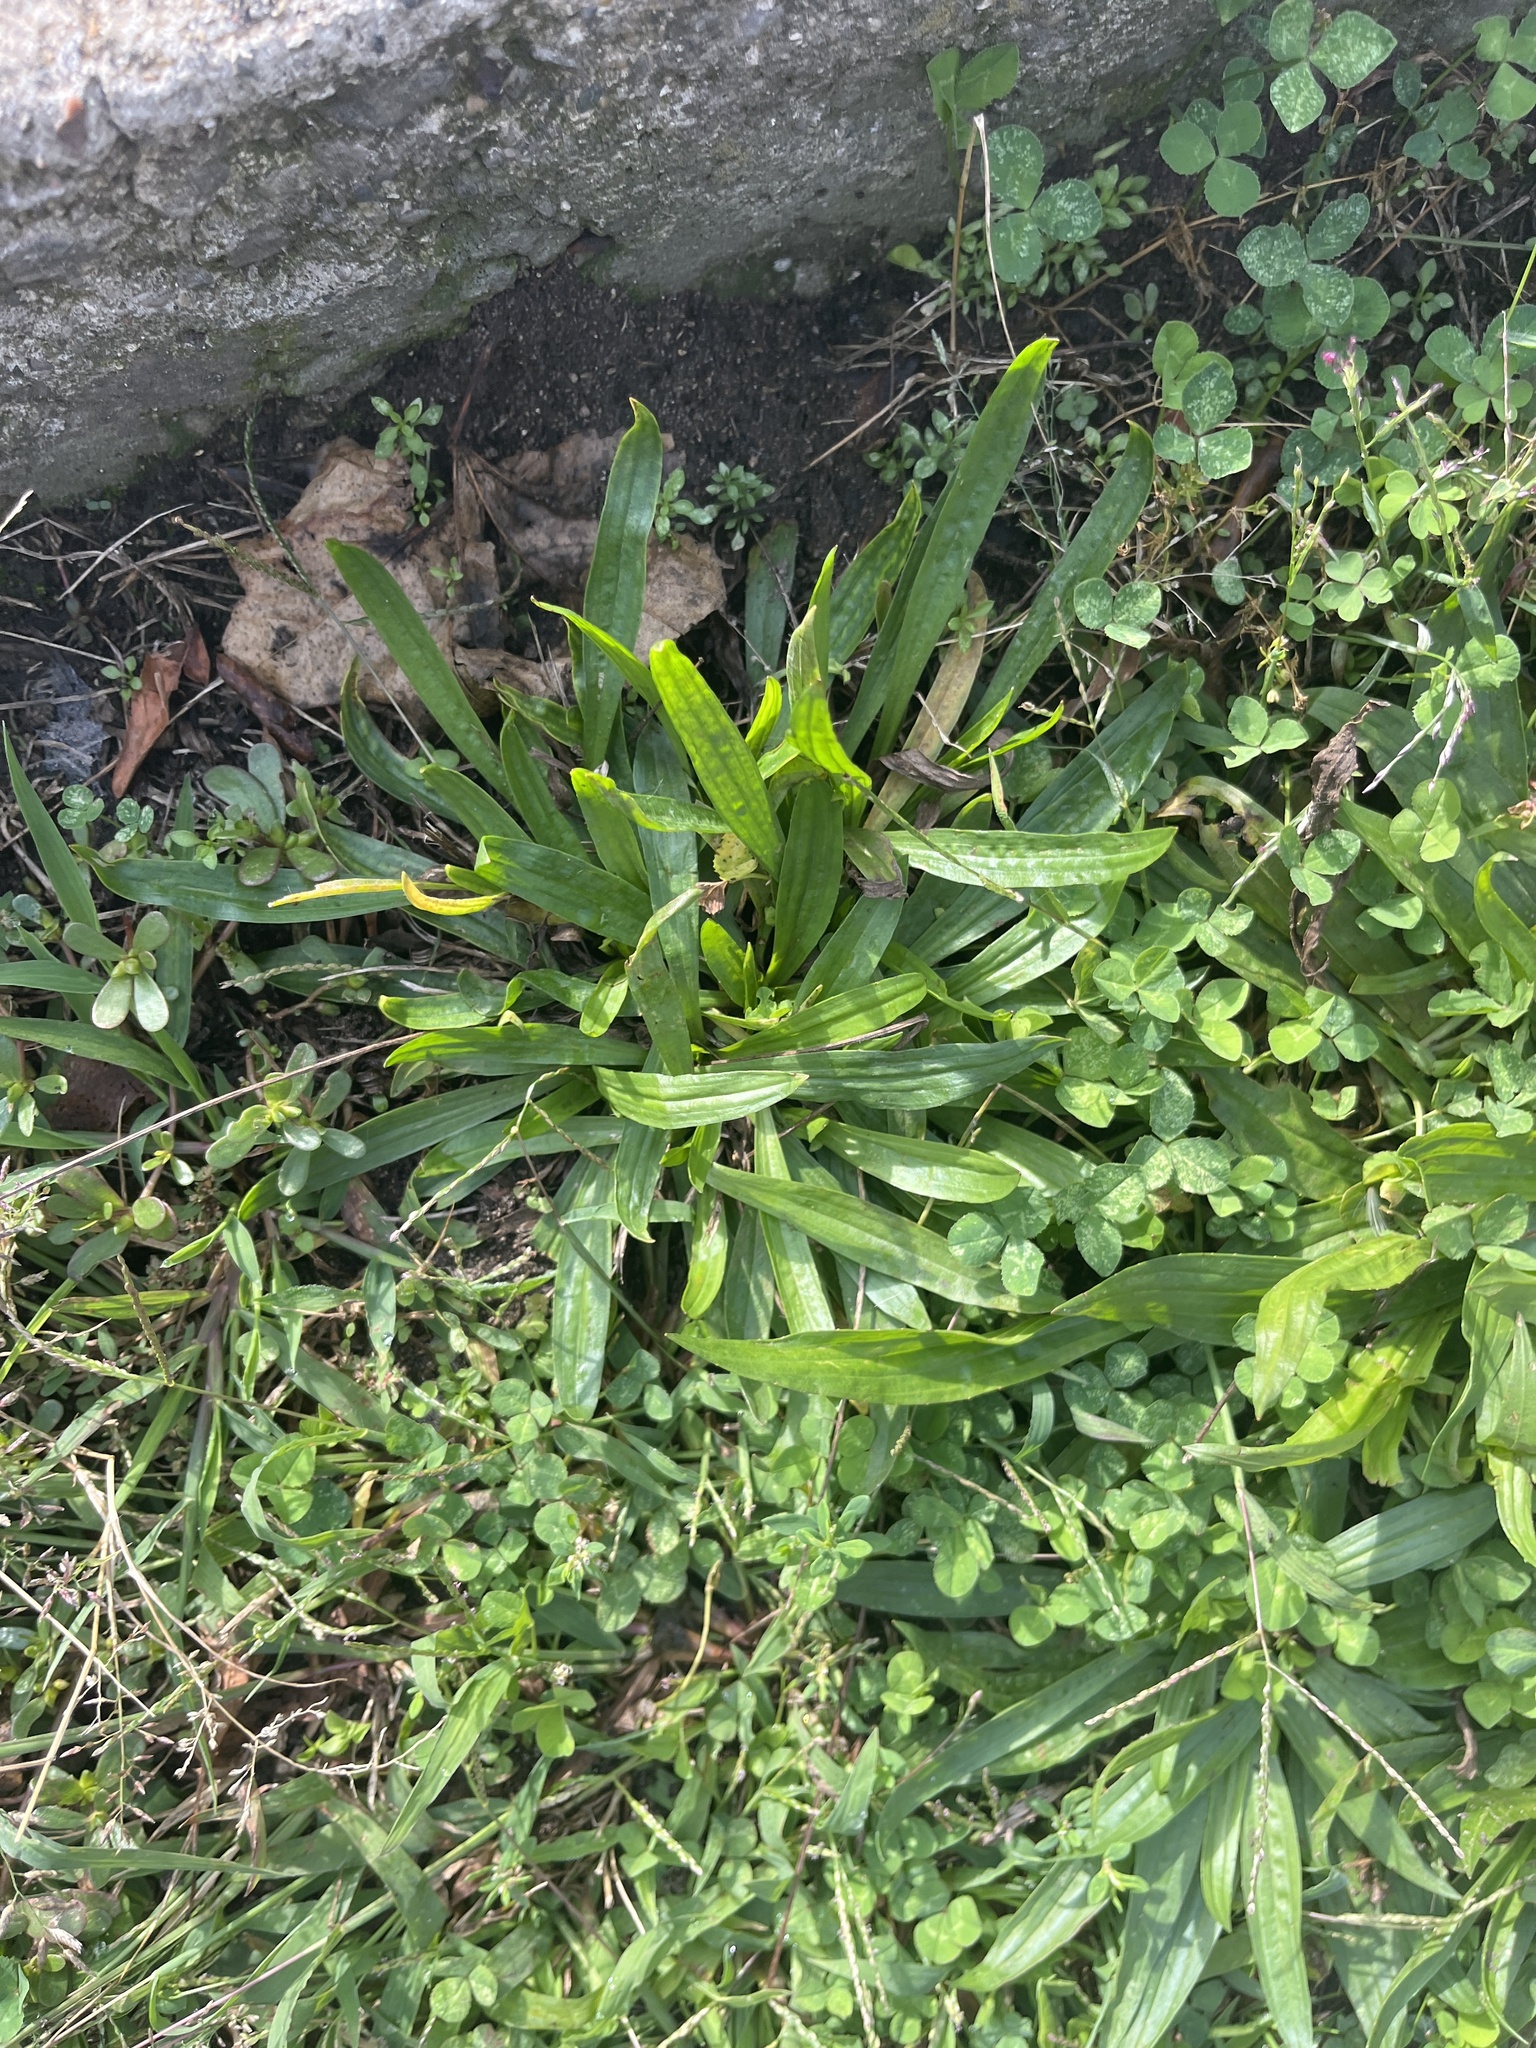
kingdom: Plantae
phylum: Tracheophyta
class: Magnoliopsida
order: Lamiales
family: Plantaginaceae
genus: Plantago
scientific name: Plantago lanceolata
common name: Ribwort plantain
